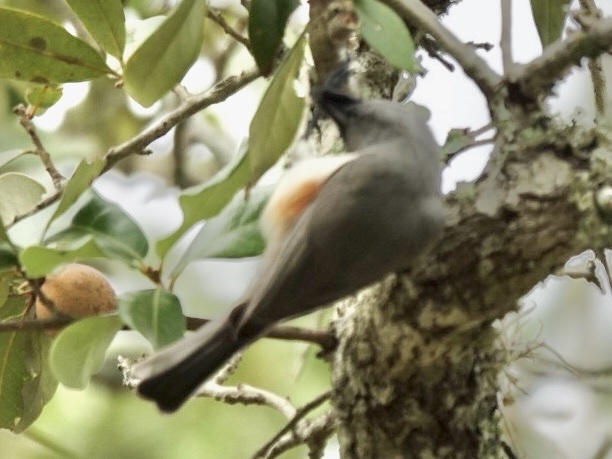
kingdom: Animalia
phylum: Chordata
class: Aves
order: Passeriformes
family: Paridae
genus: Baeolophus
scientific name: Baeolophus atricristatus
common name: Black-crested titmouse
